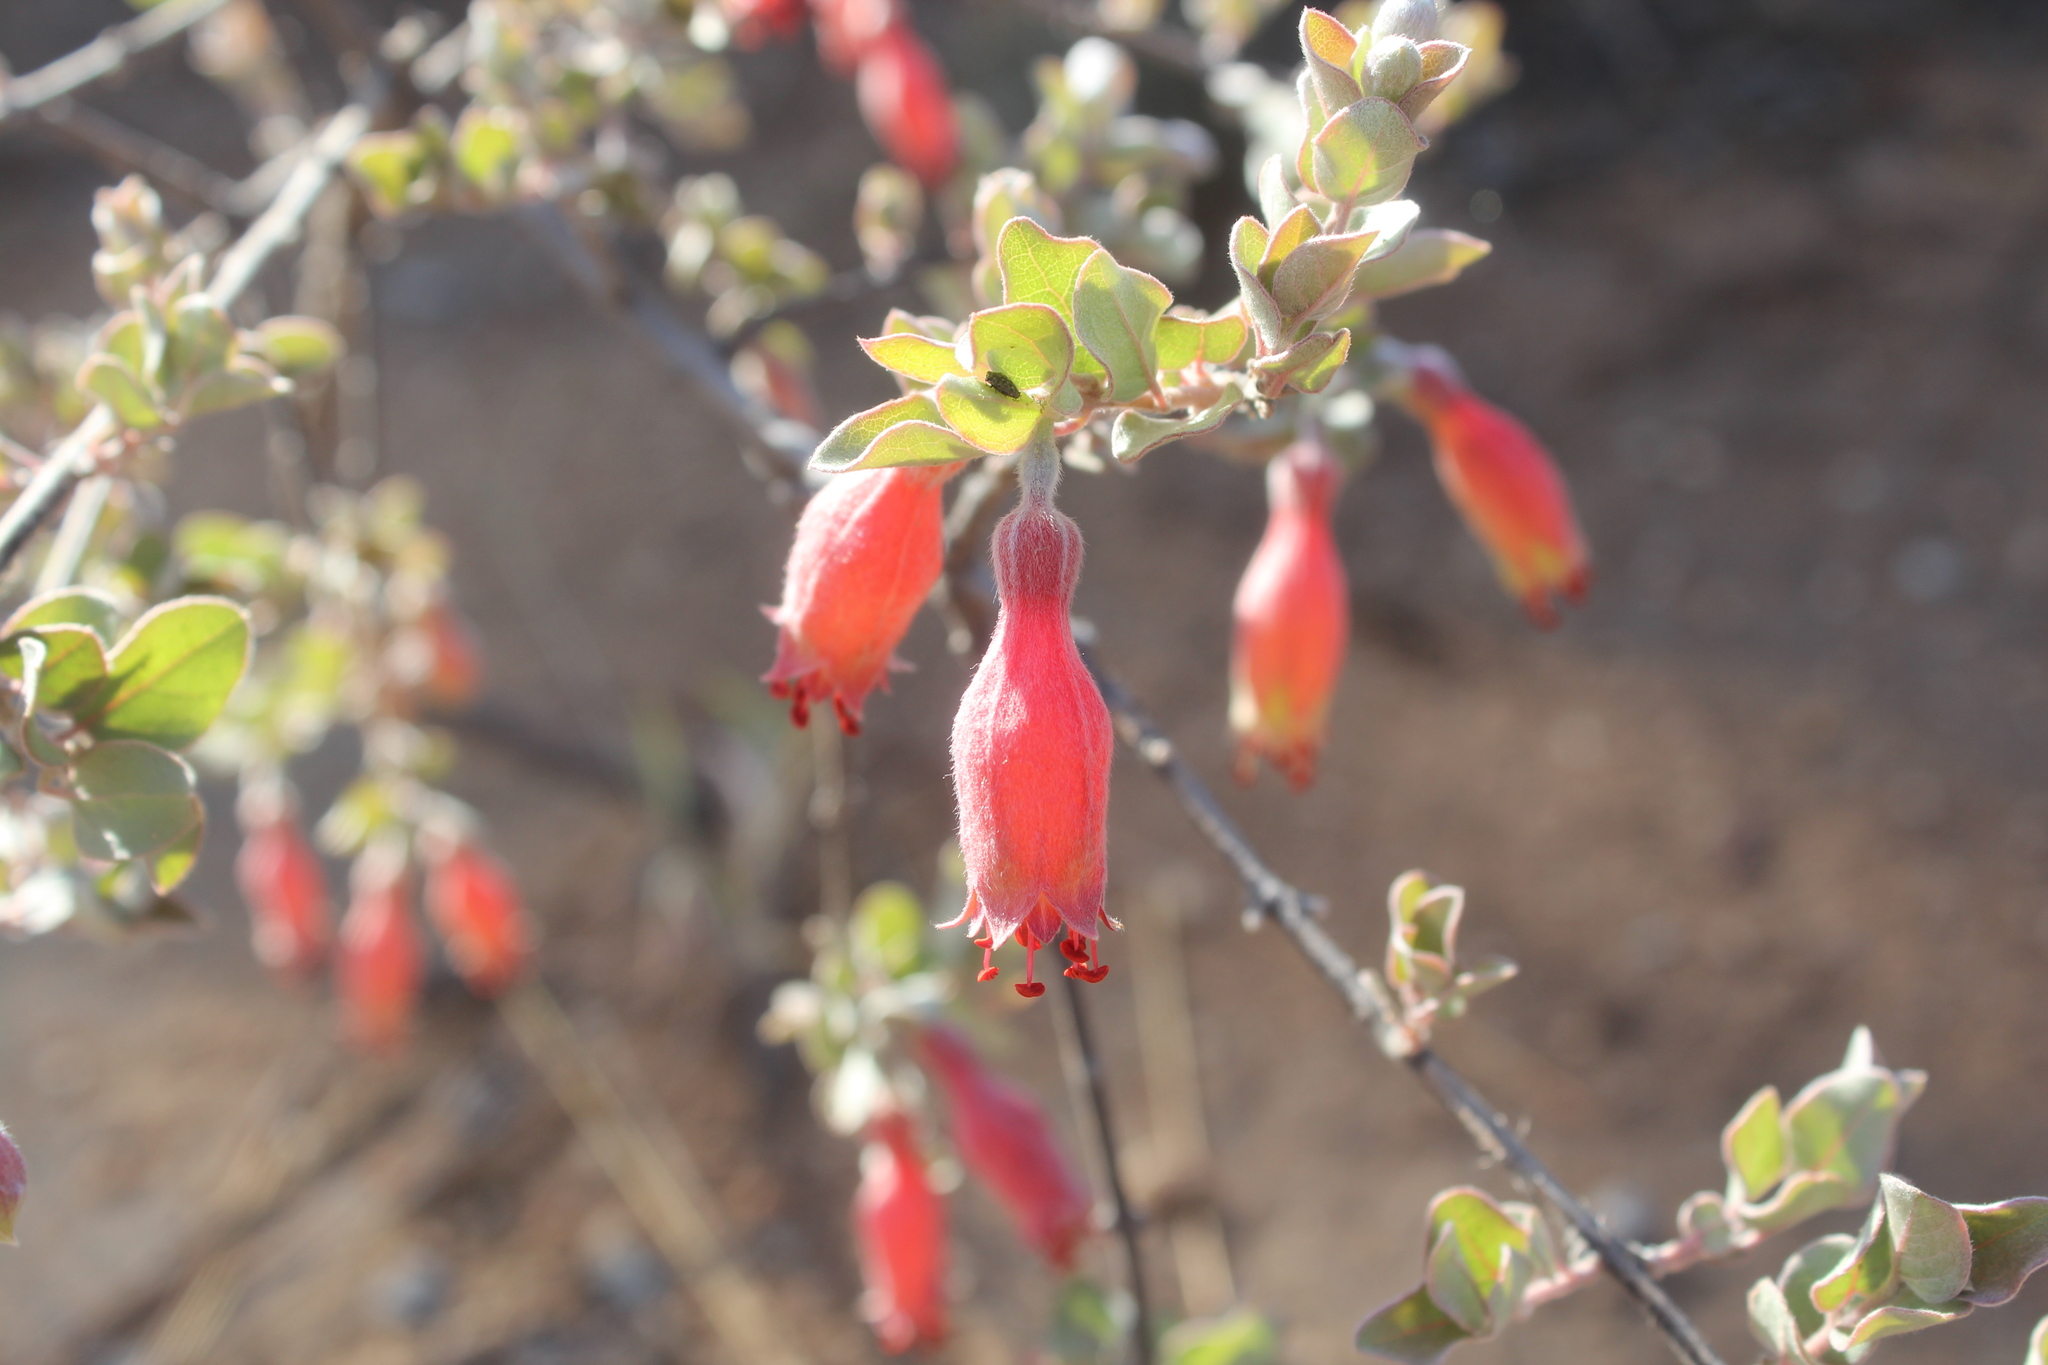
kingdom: Plantae
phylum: Tracheophyta
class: Magnoliopsida
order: Myrtales
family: Combretaceae
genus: Combretum
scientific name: Combretum grandidieri
